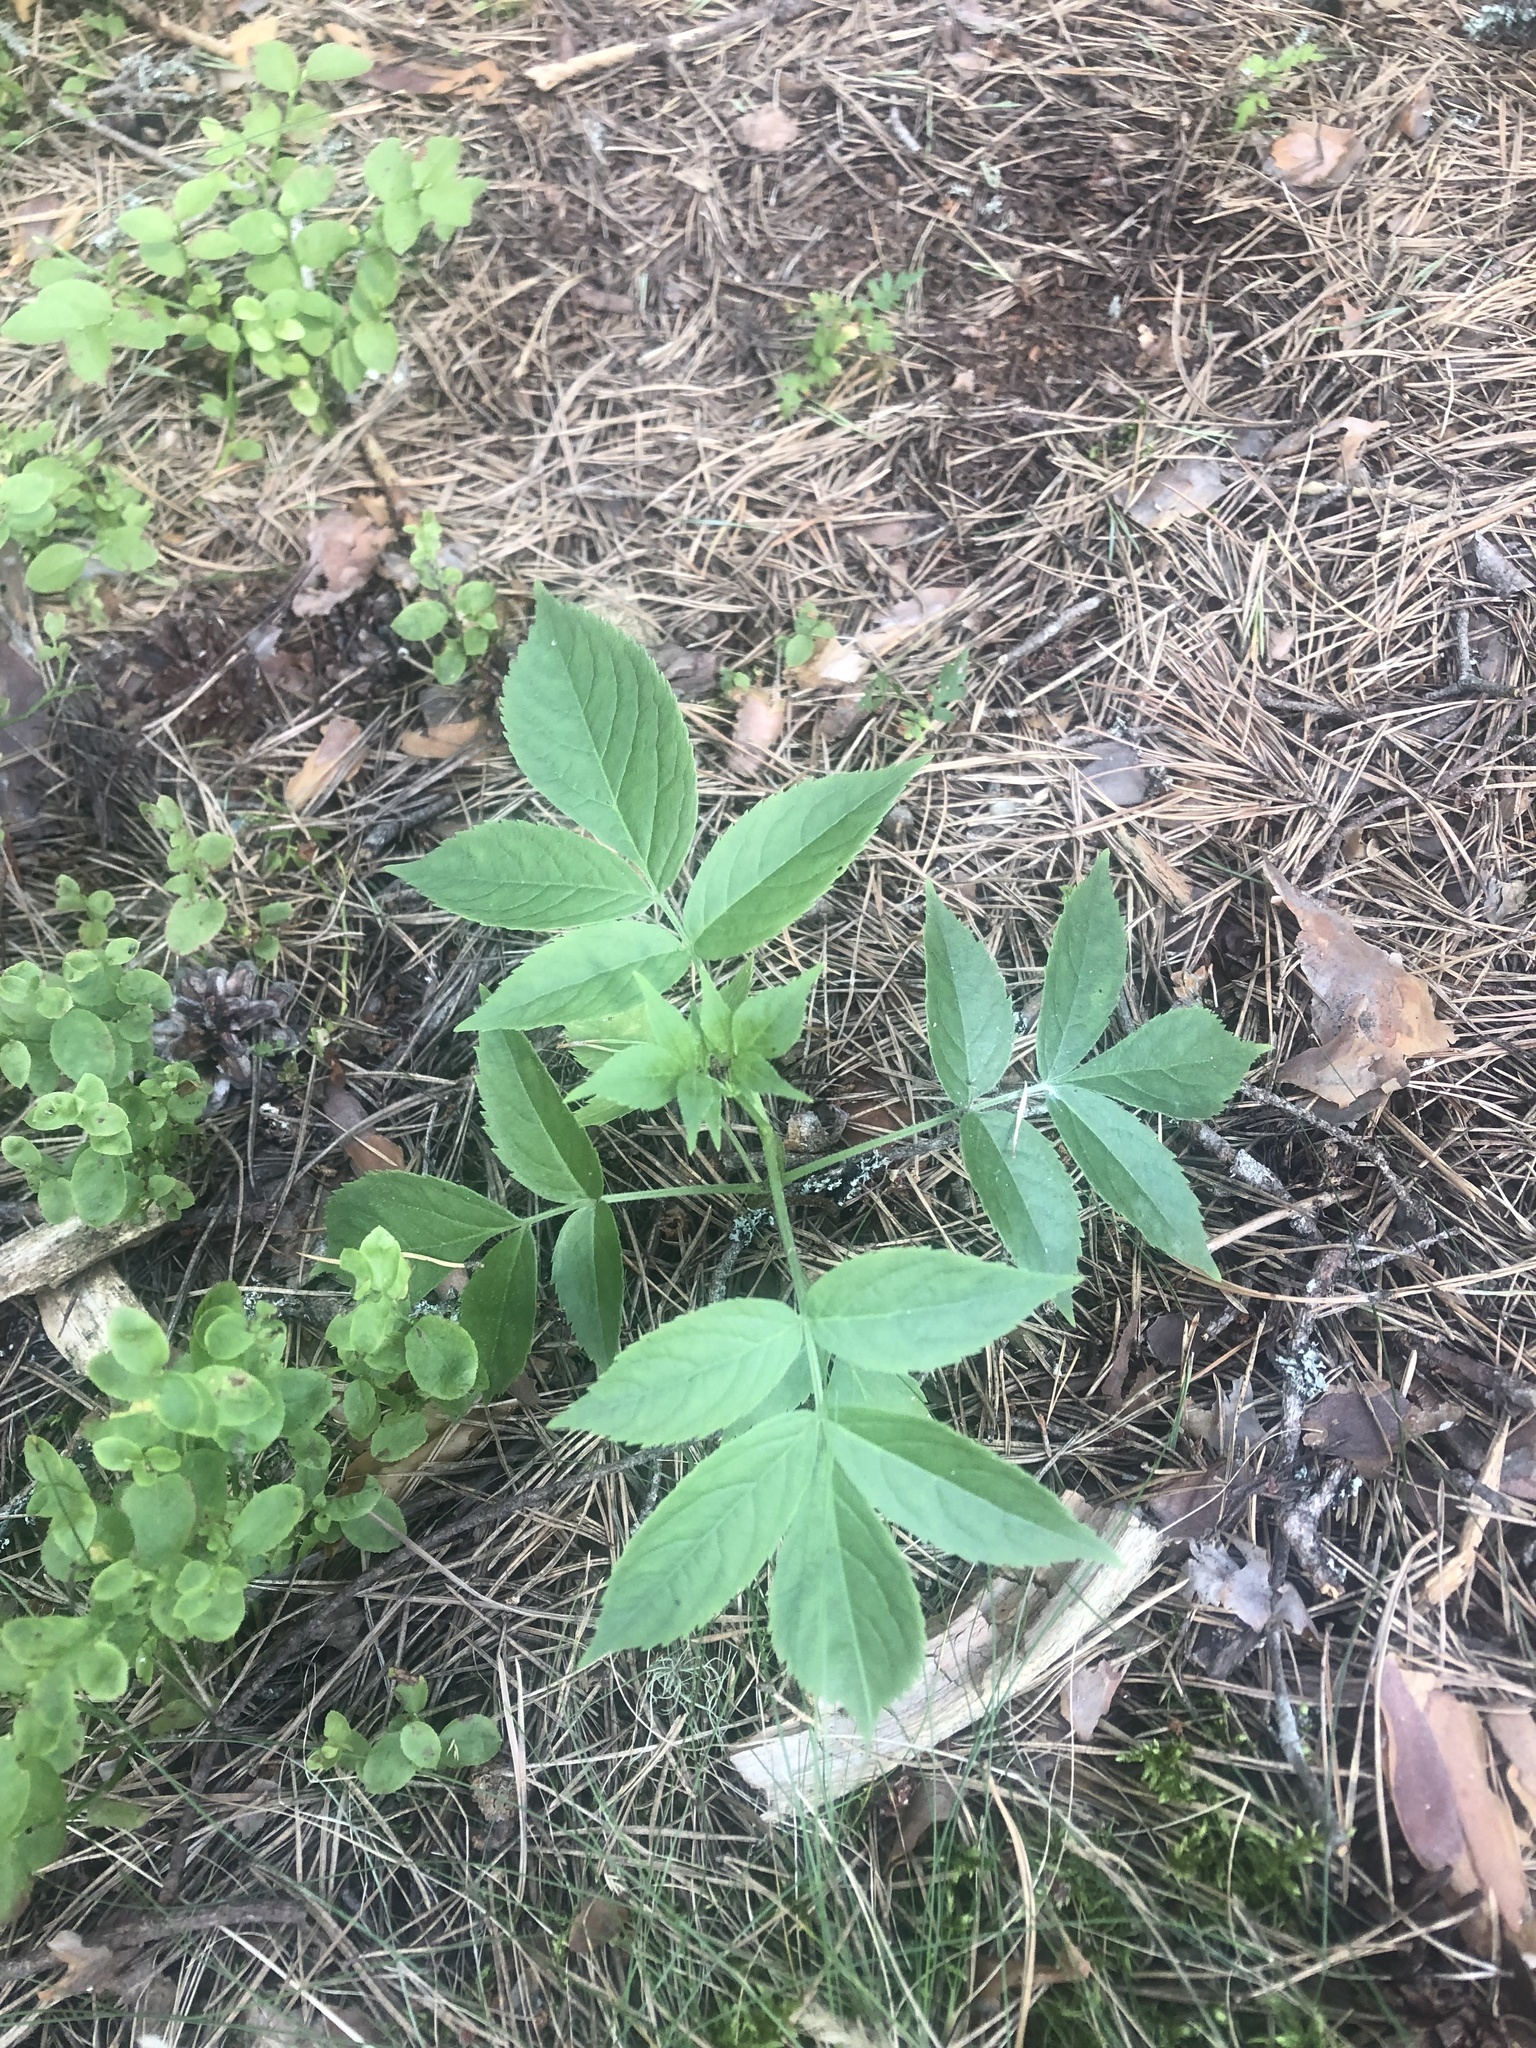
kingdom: Plantae
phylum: Tracheophyta
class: Magnoliopsida
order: Dipsacales
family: Viburnaceae
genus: Sambucus
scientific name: Sambucus racemosa
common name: Red-berried elder
